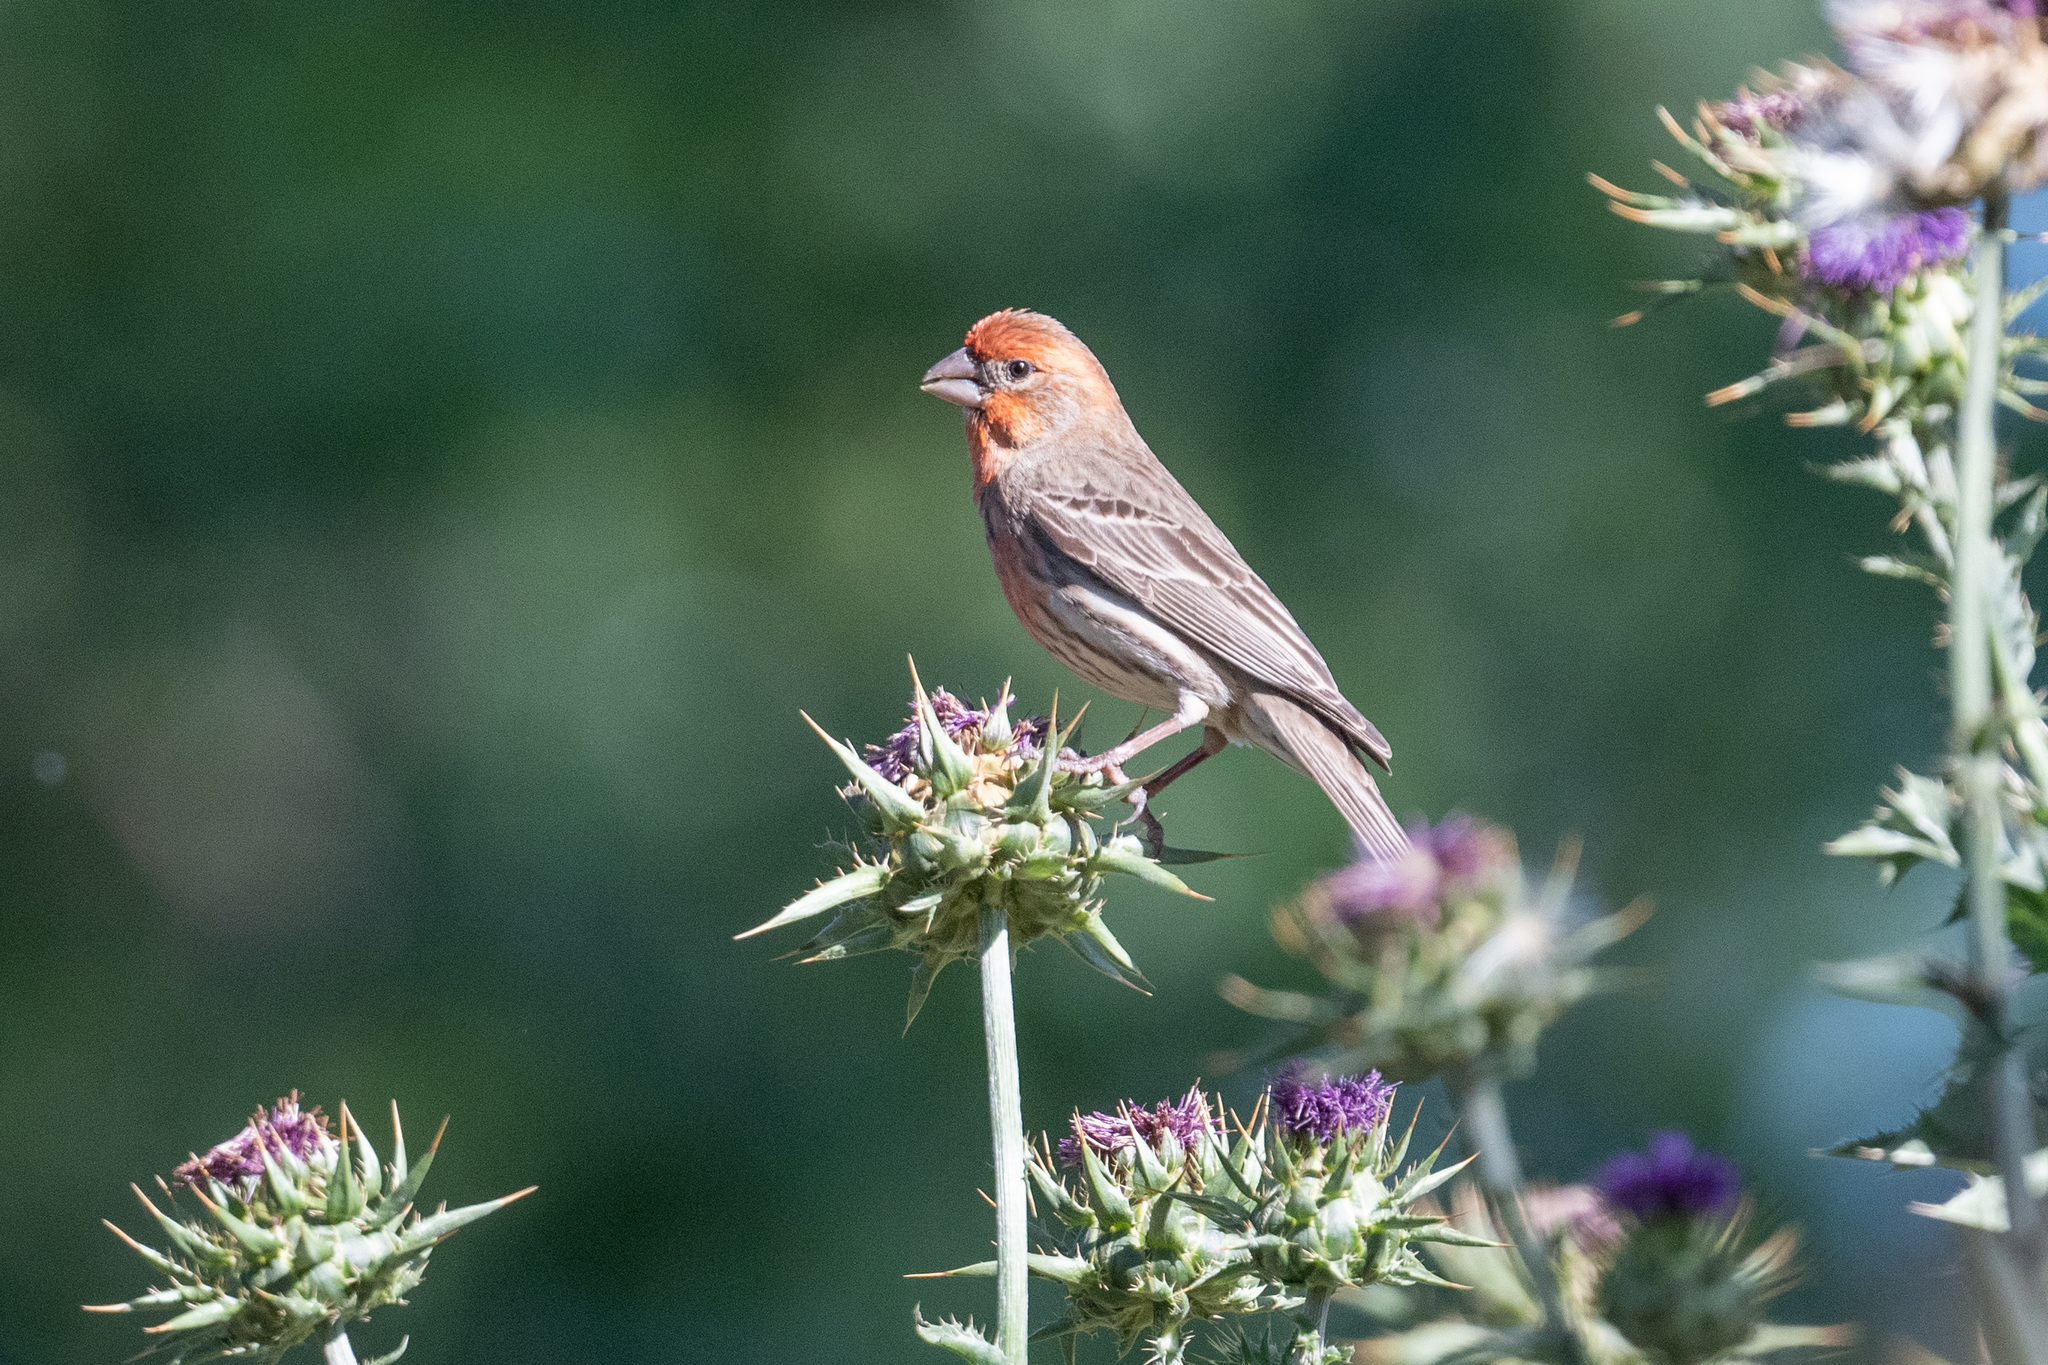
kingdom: Animalia
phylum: Chordata
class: Aves
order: Passeriformes
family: Fringillidae
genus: Haemorhous
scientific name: Haemorhous mexicanus
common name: House finch
